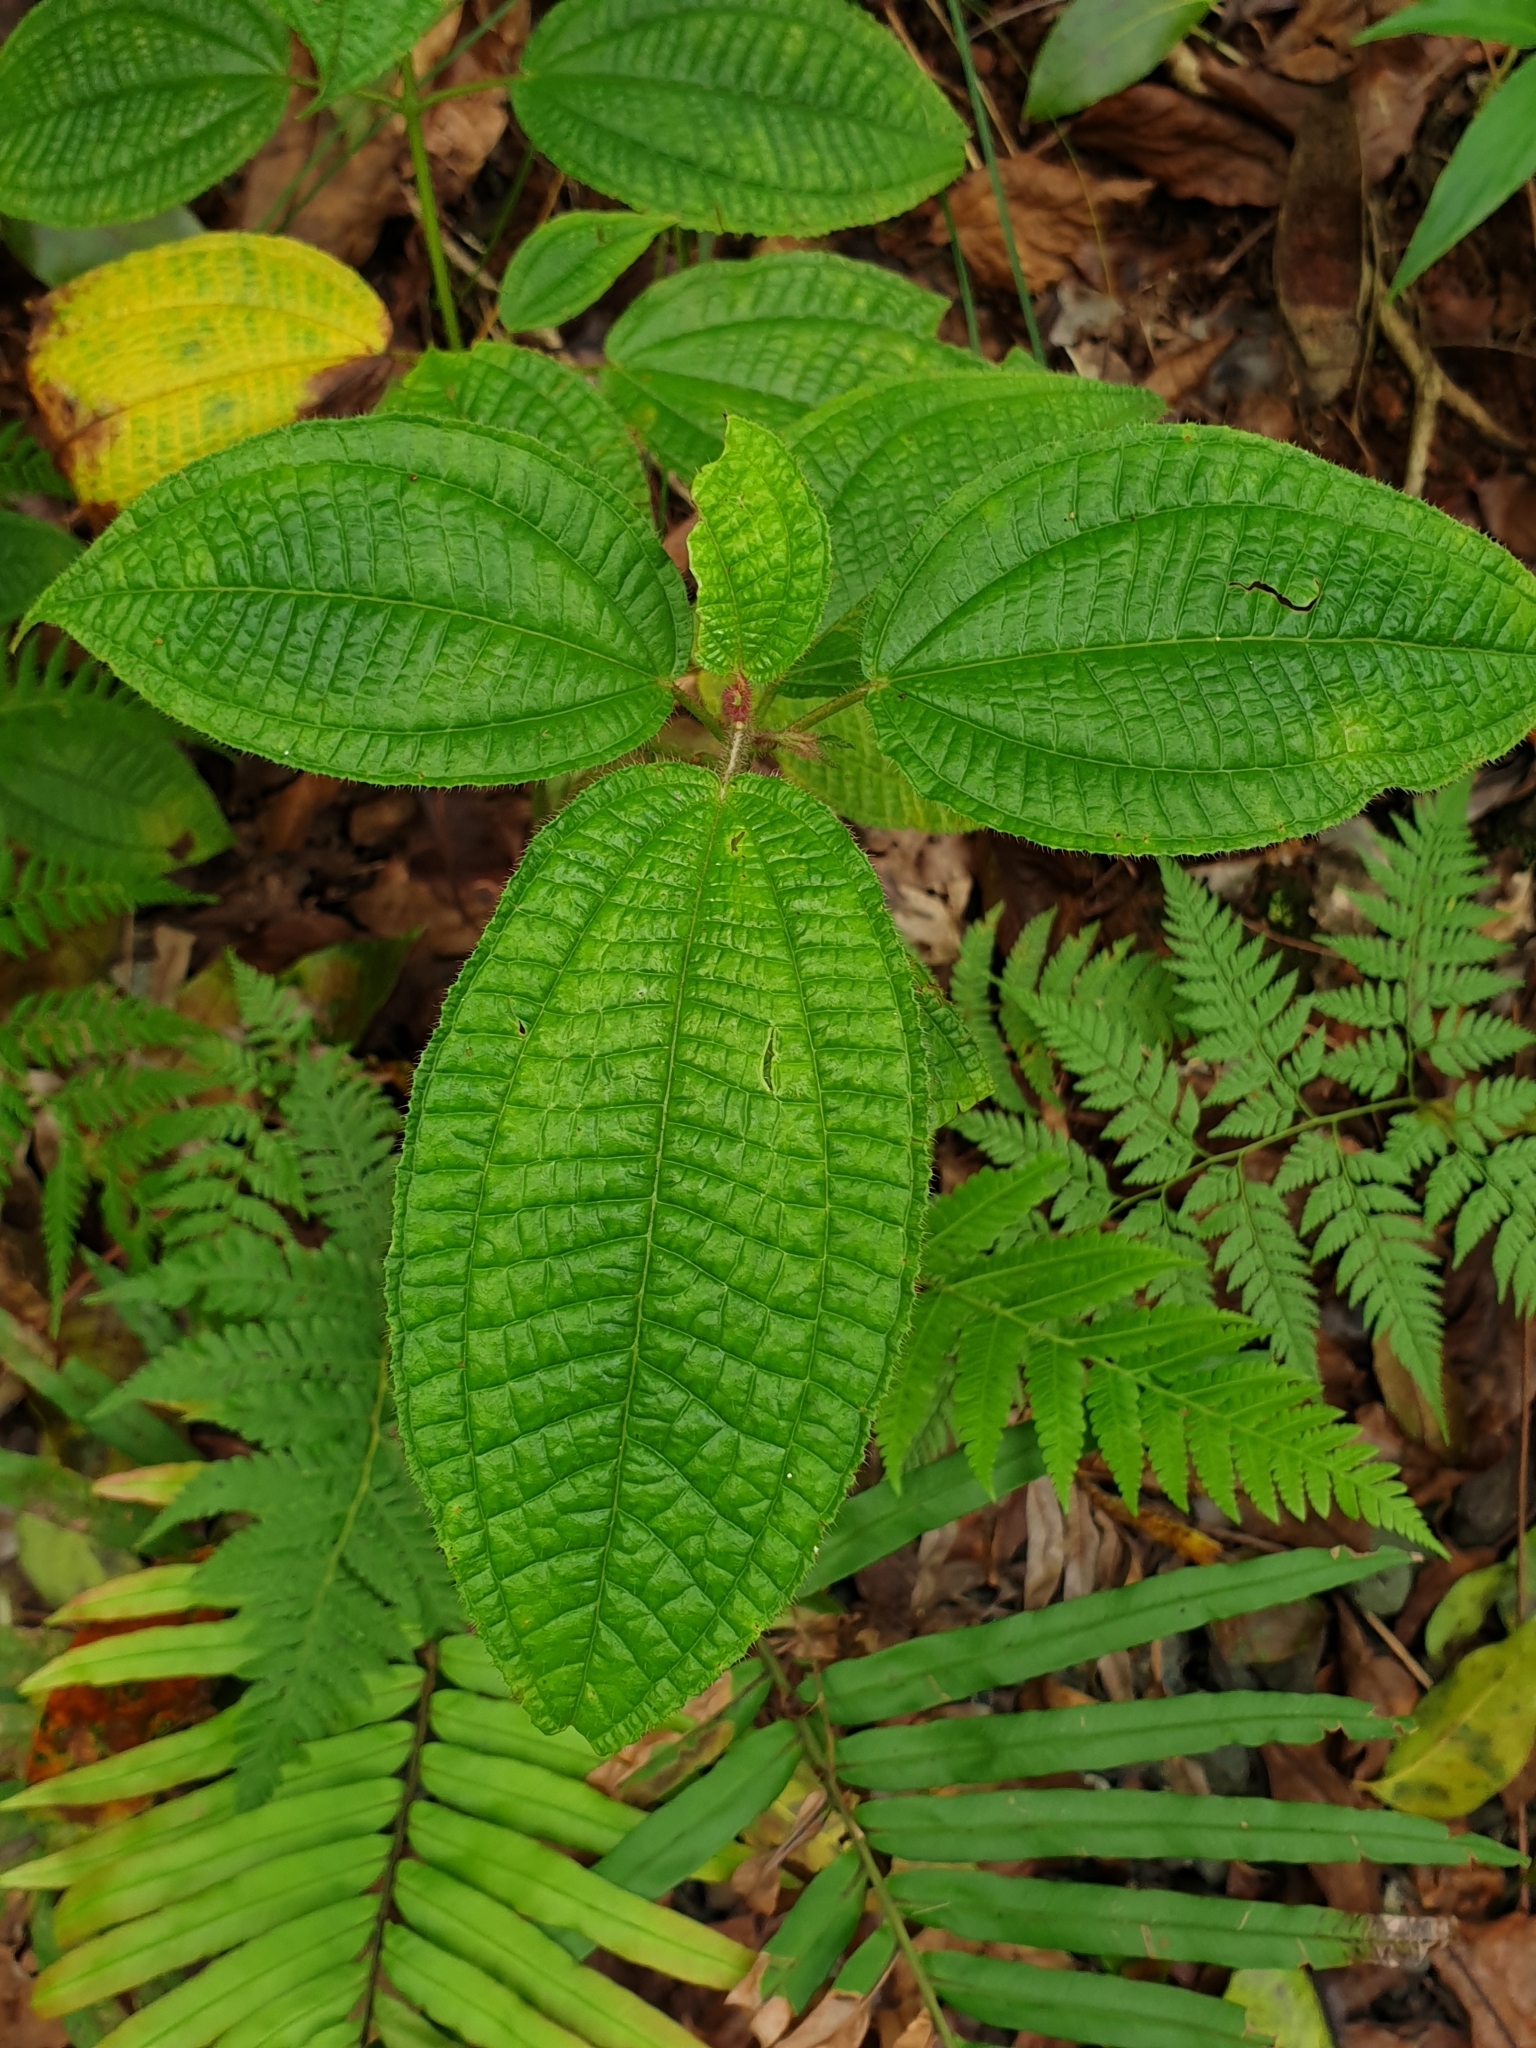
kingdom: Plantae
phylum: Tracheophyta
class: Magnoliopsida
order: Myrtales
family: Melastomataceae
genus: Miconia
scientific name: Miconia crenata
